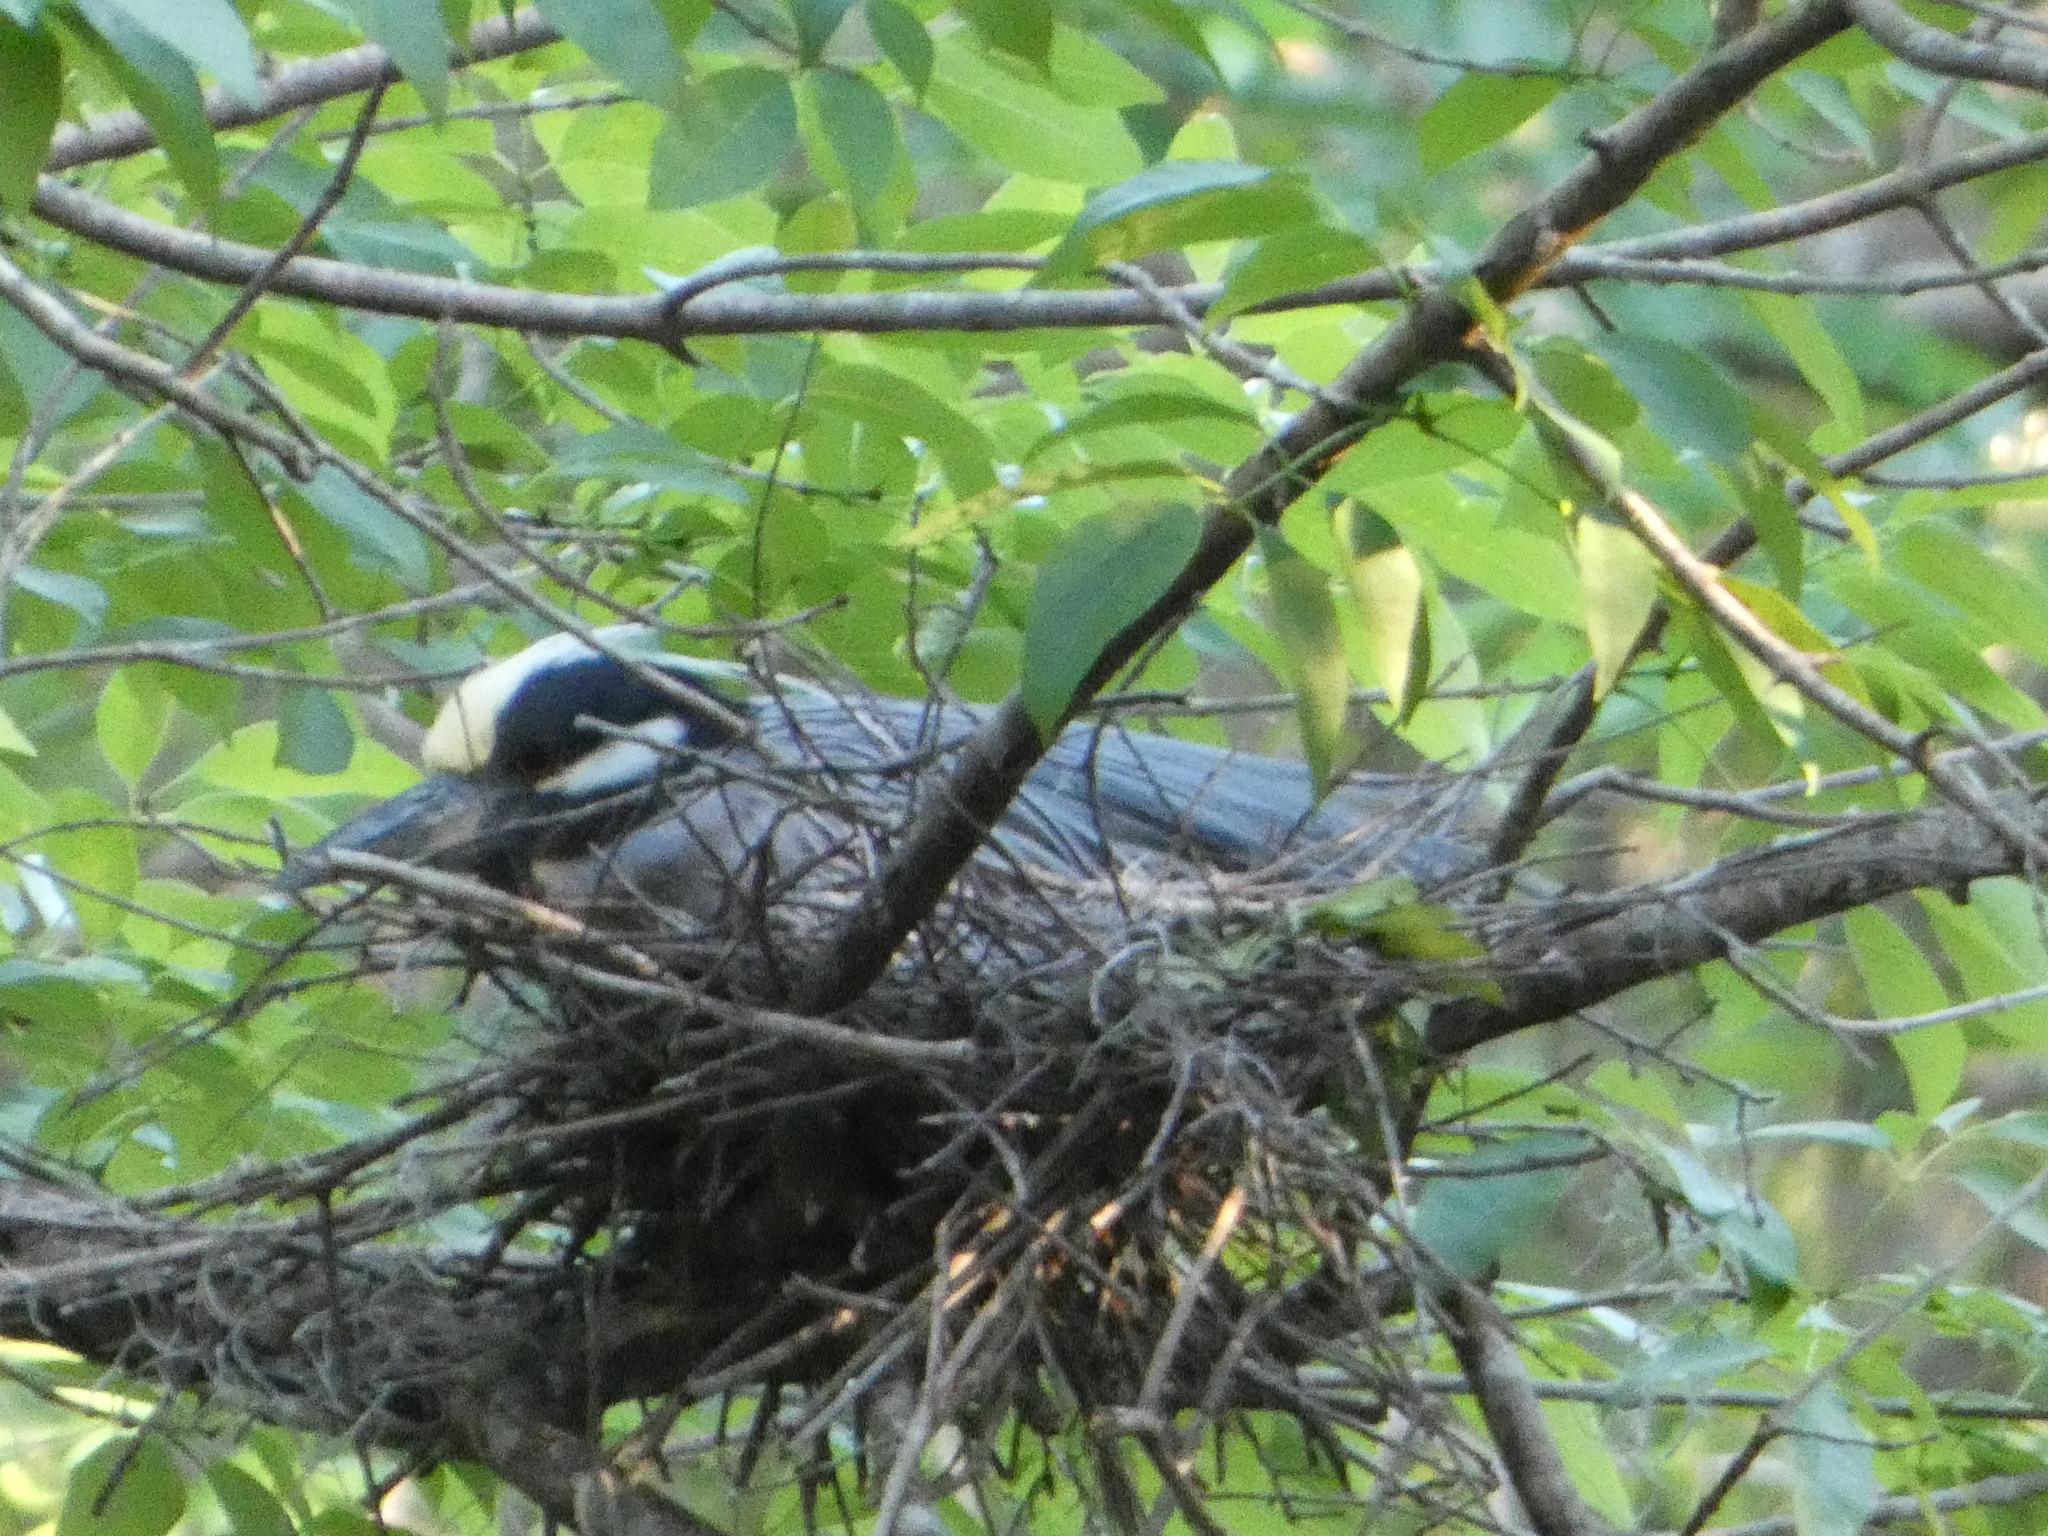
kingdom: Animalia
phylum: Chordata
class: Aves
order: Pelecaniformes
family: Ardeidae
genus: Nyctanassa
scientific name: Nyctanassa violacea
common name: Yellow-crowned night heron
